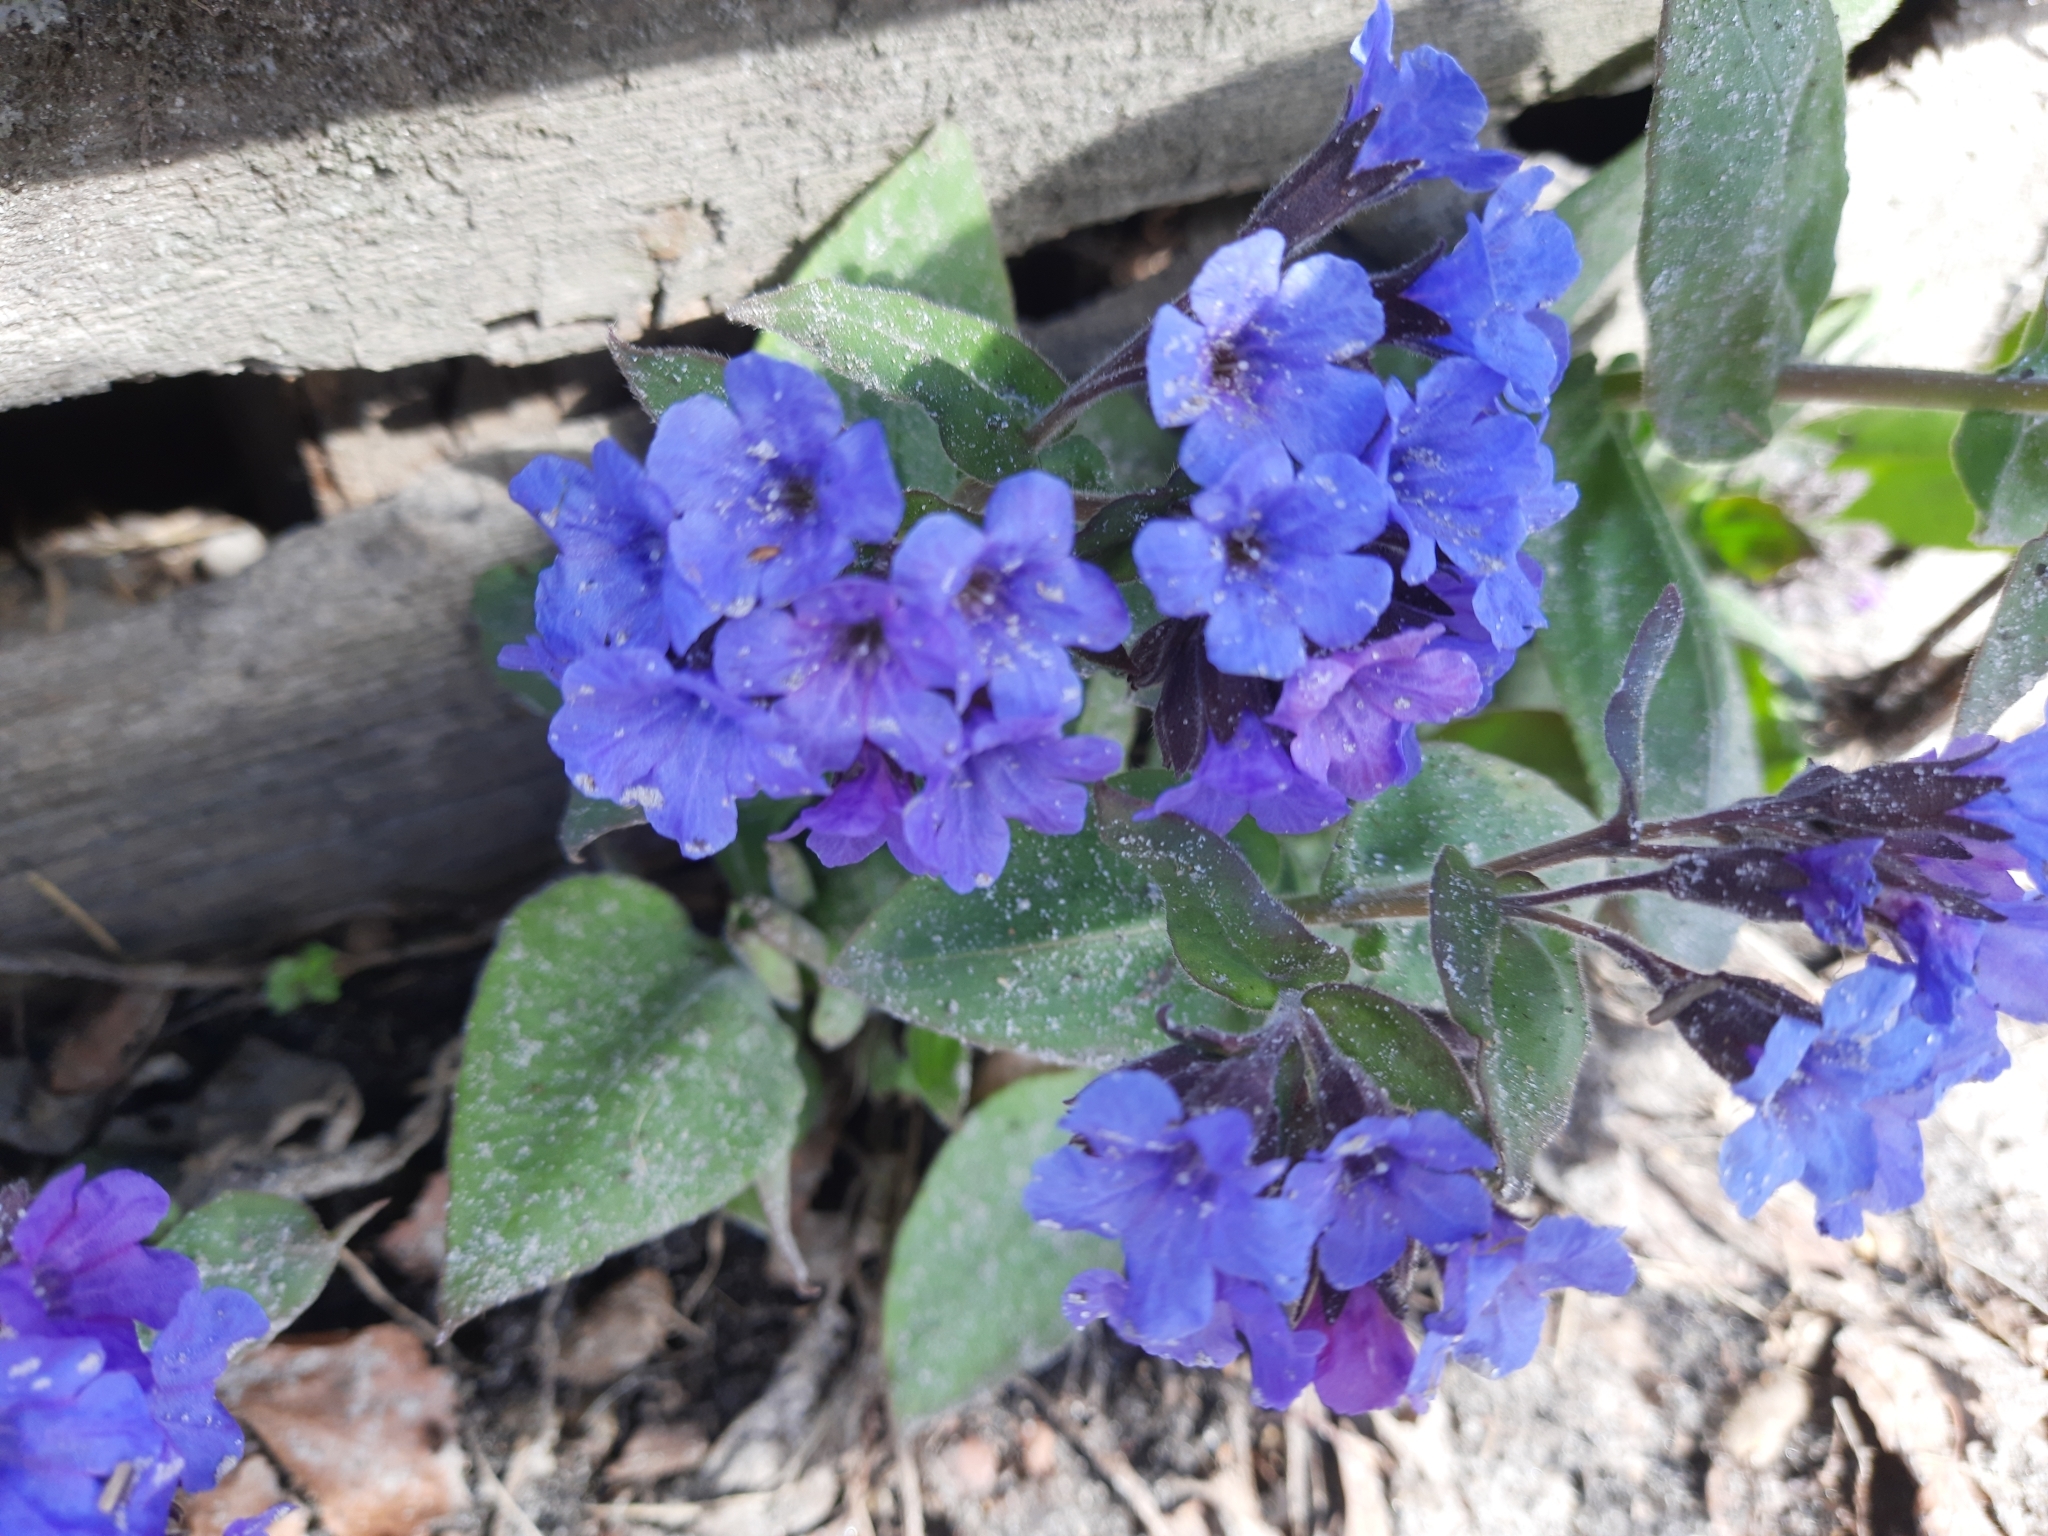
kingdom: Plantae
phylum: Tracheophyta
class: Magnoliopsida
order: Boraginales
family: Boraginaceae
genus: Pulmonaria
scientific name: Pulmonaria mollis
